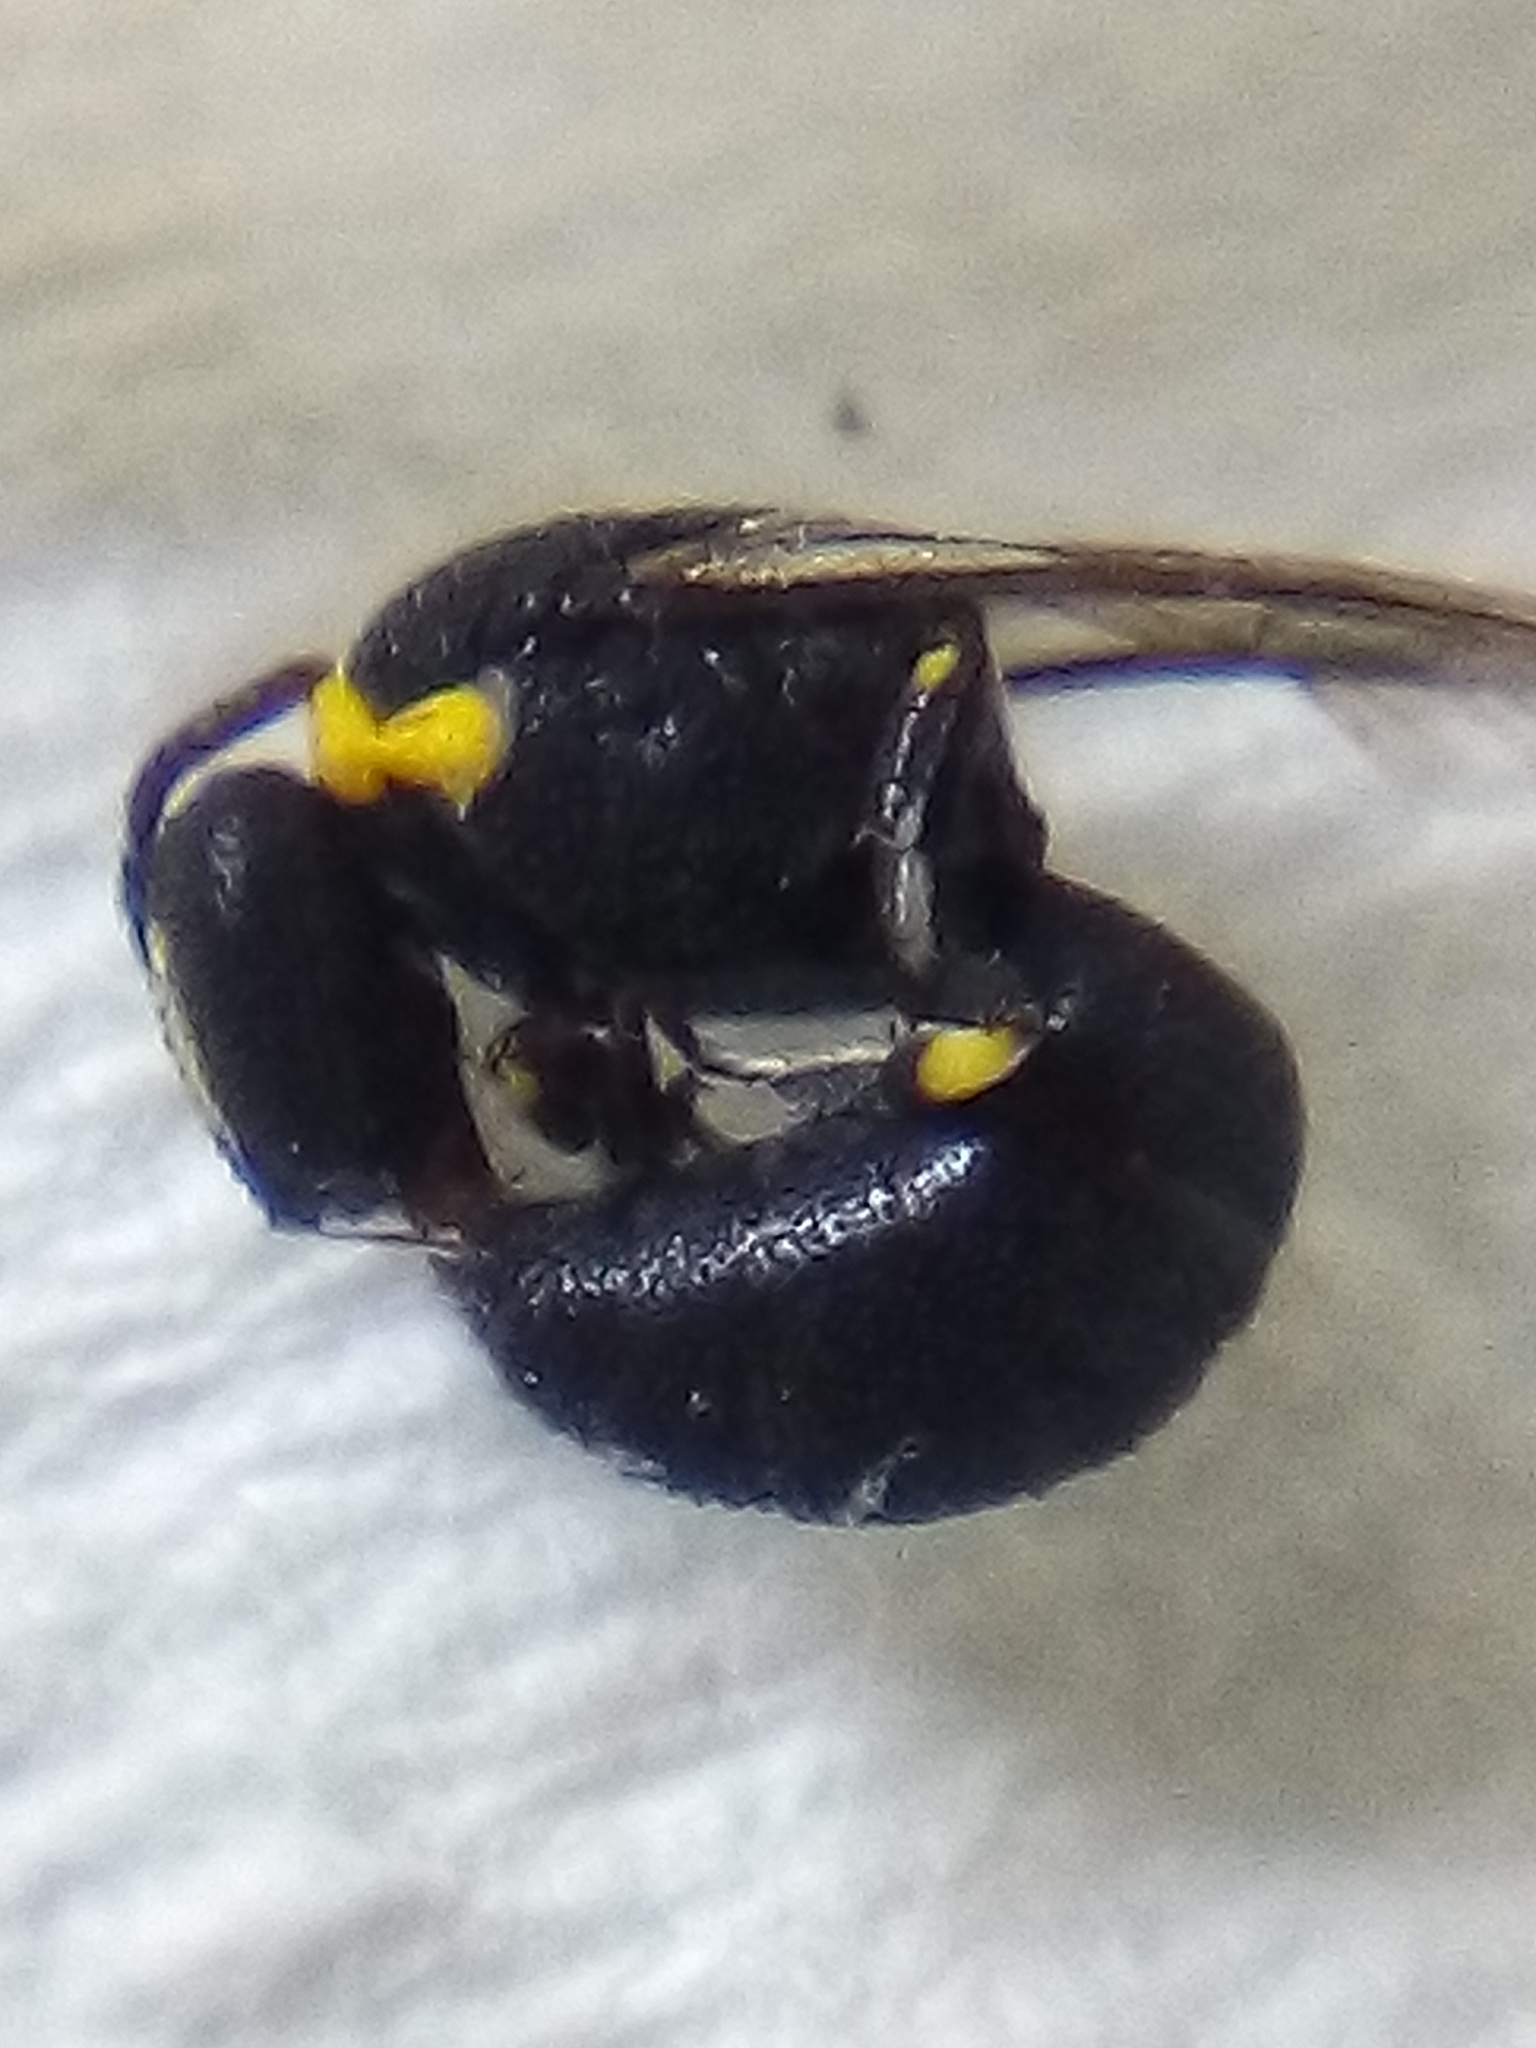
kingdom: Animalia
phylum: Arthropoda
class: Insecta
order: Hymenoptera
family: Colletidae
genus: Hylaeus
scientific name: Hylaeus euxanthus
